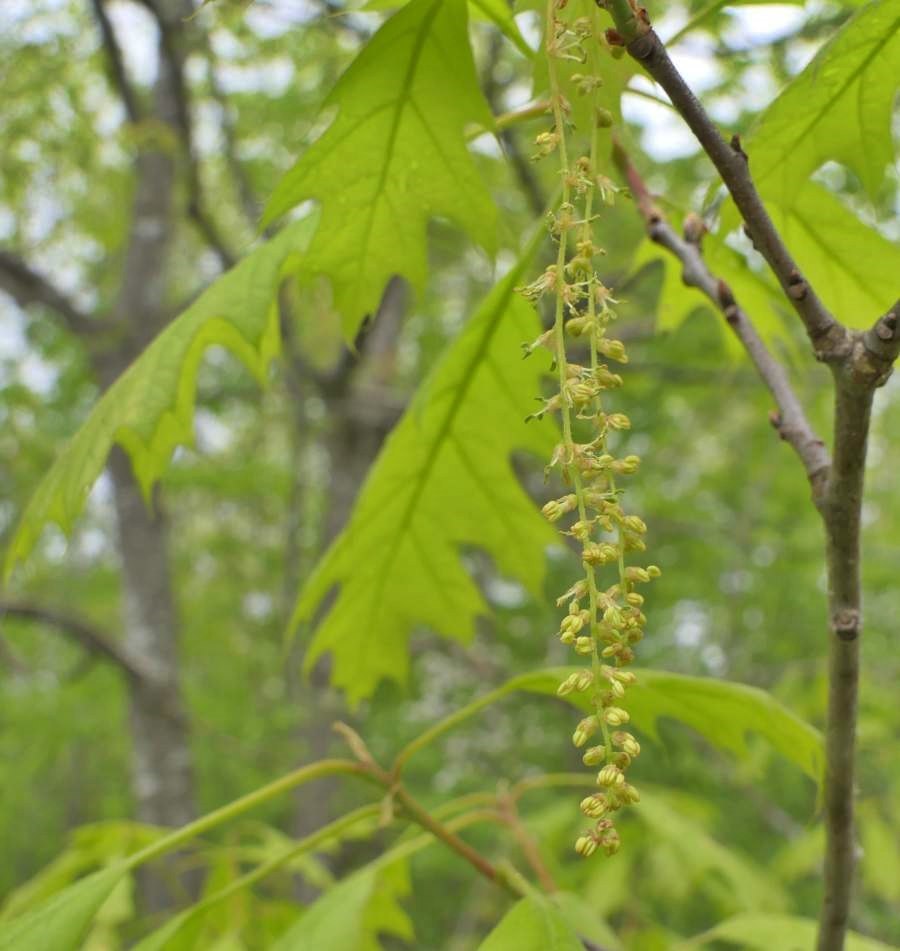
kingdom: Plantae
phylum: Tracheophyta
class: Magnoliopsida
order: Fagales
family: Fagaceae
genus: Quercus
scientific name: Quercus rubra
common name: Red oak
